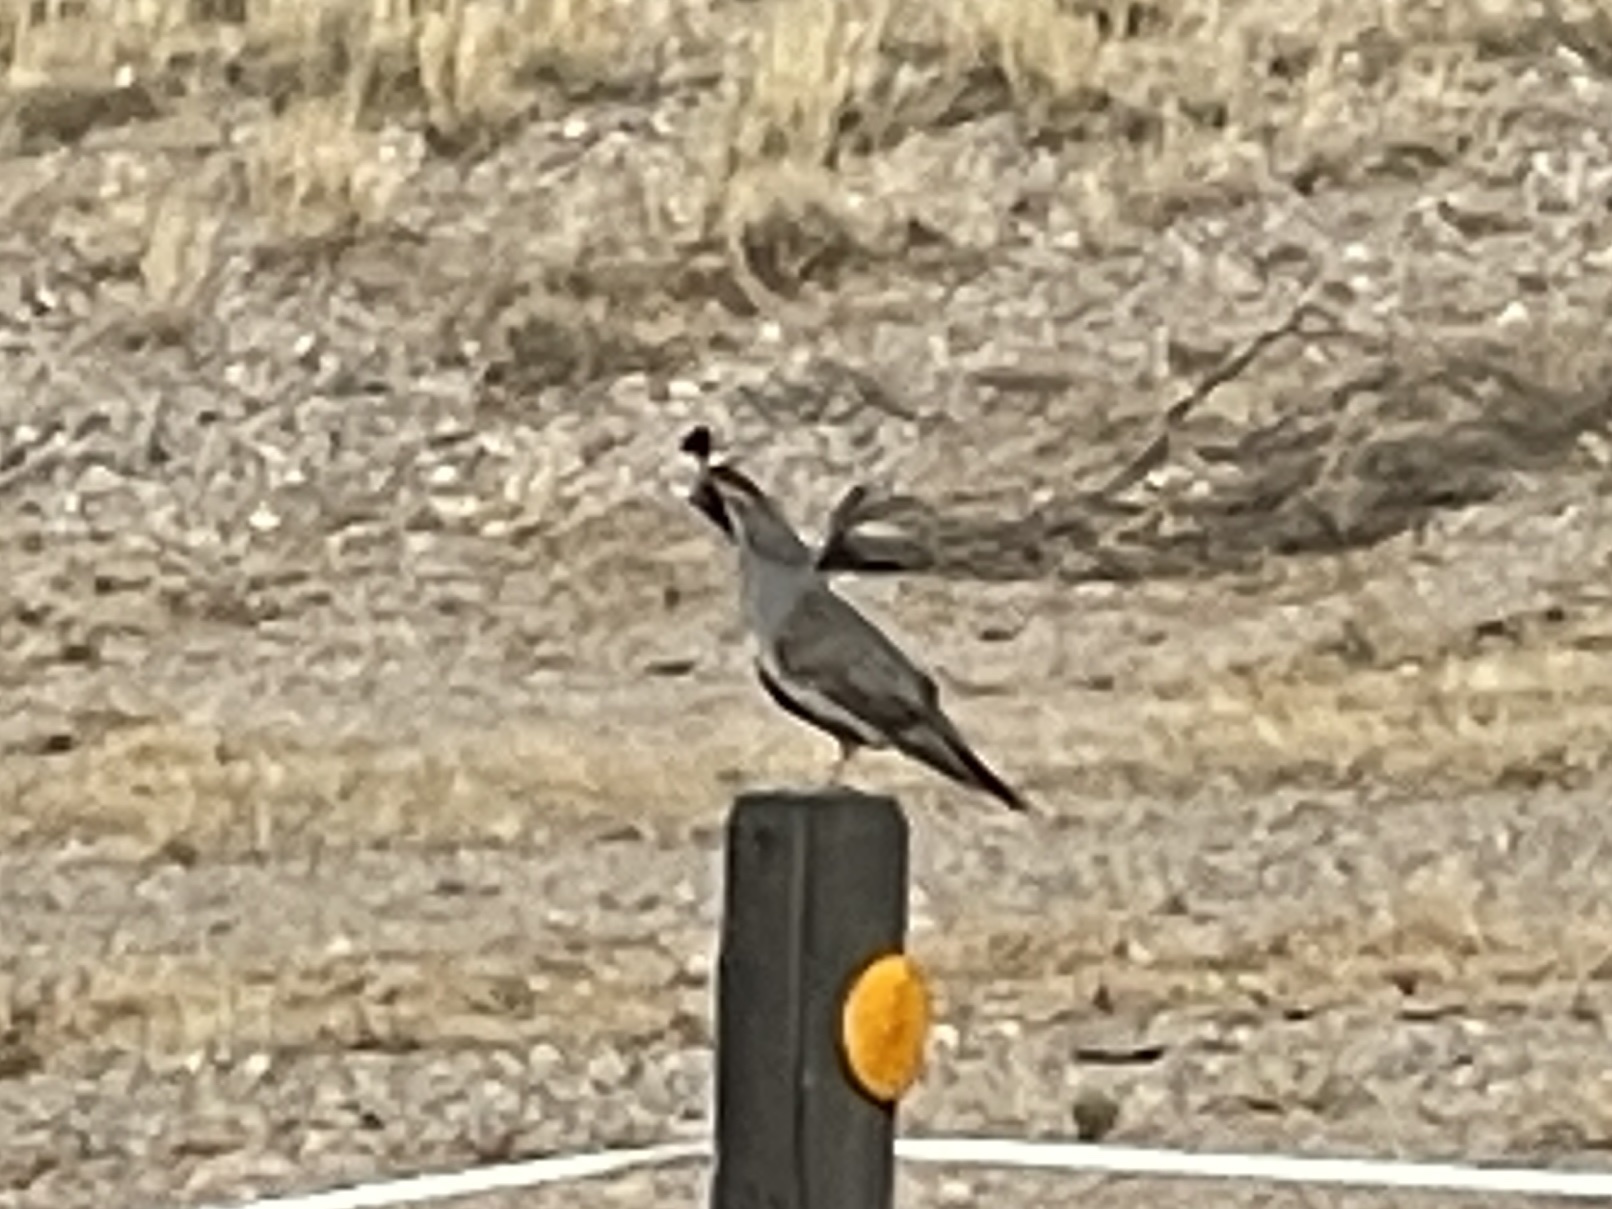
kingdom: Animalia
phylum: Chordata
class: Aves
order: Galliformes
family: Odontophoridae
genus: Callipepla
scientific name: Callipepla gambelii
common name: Gambel's quail
